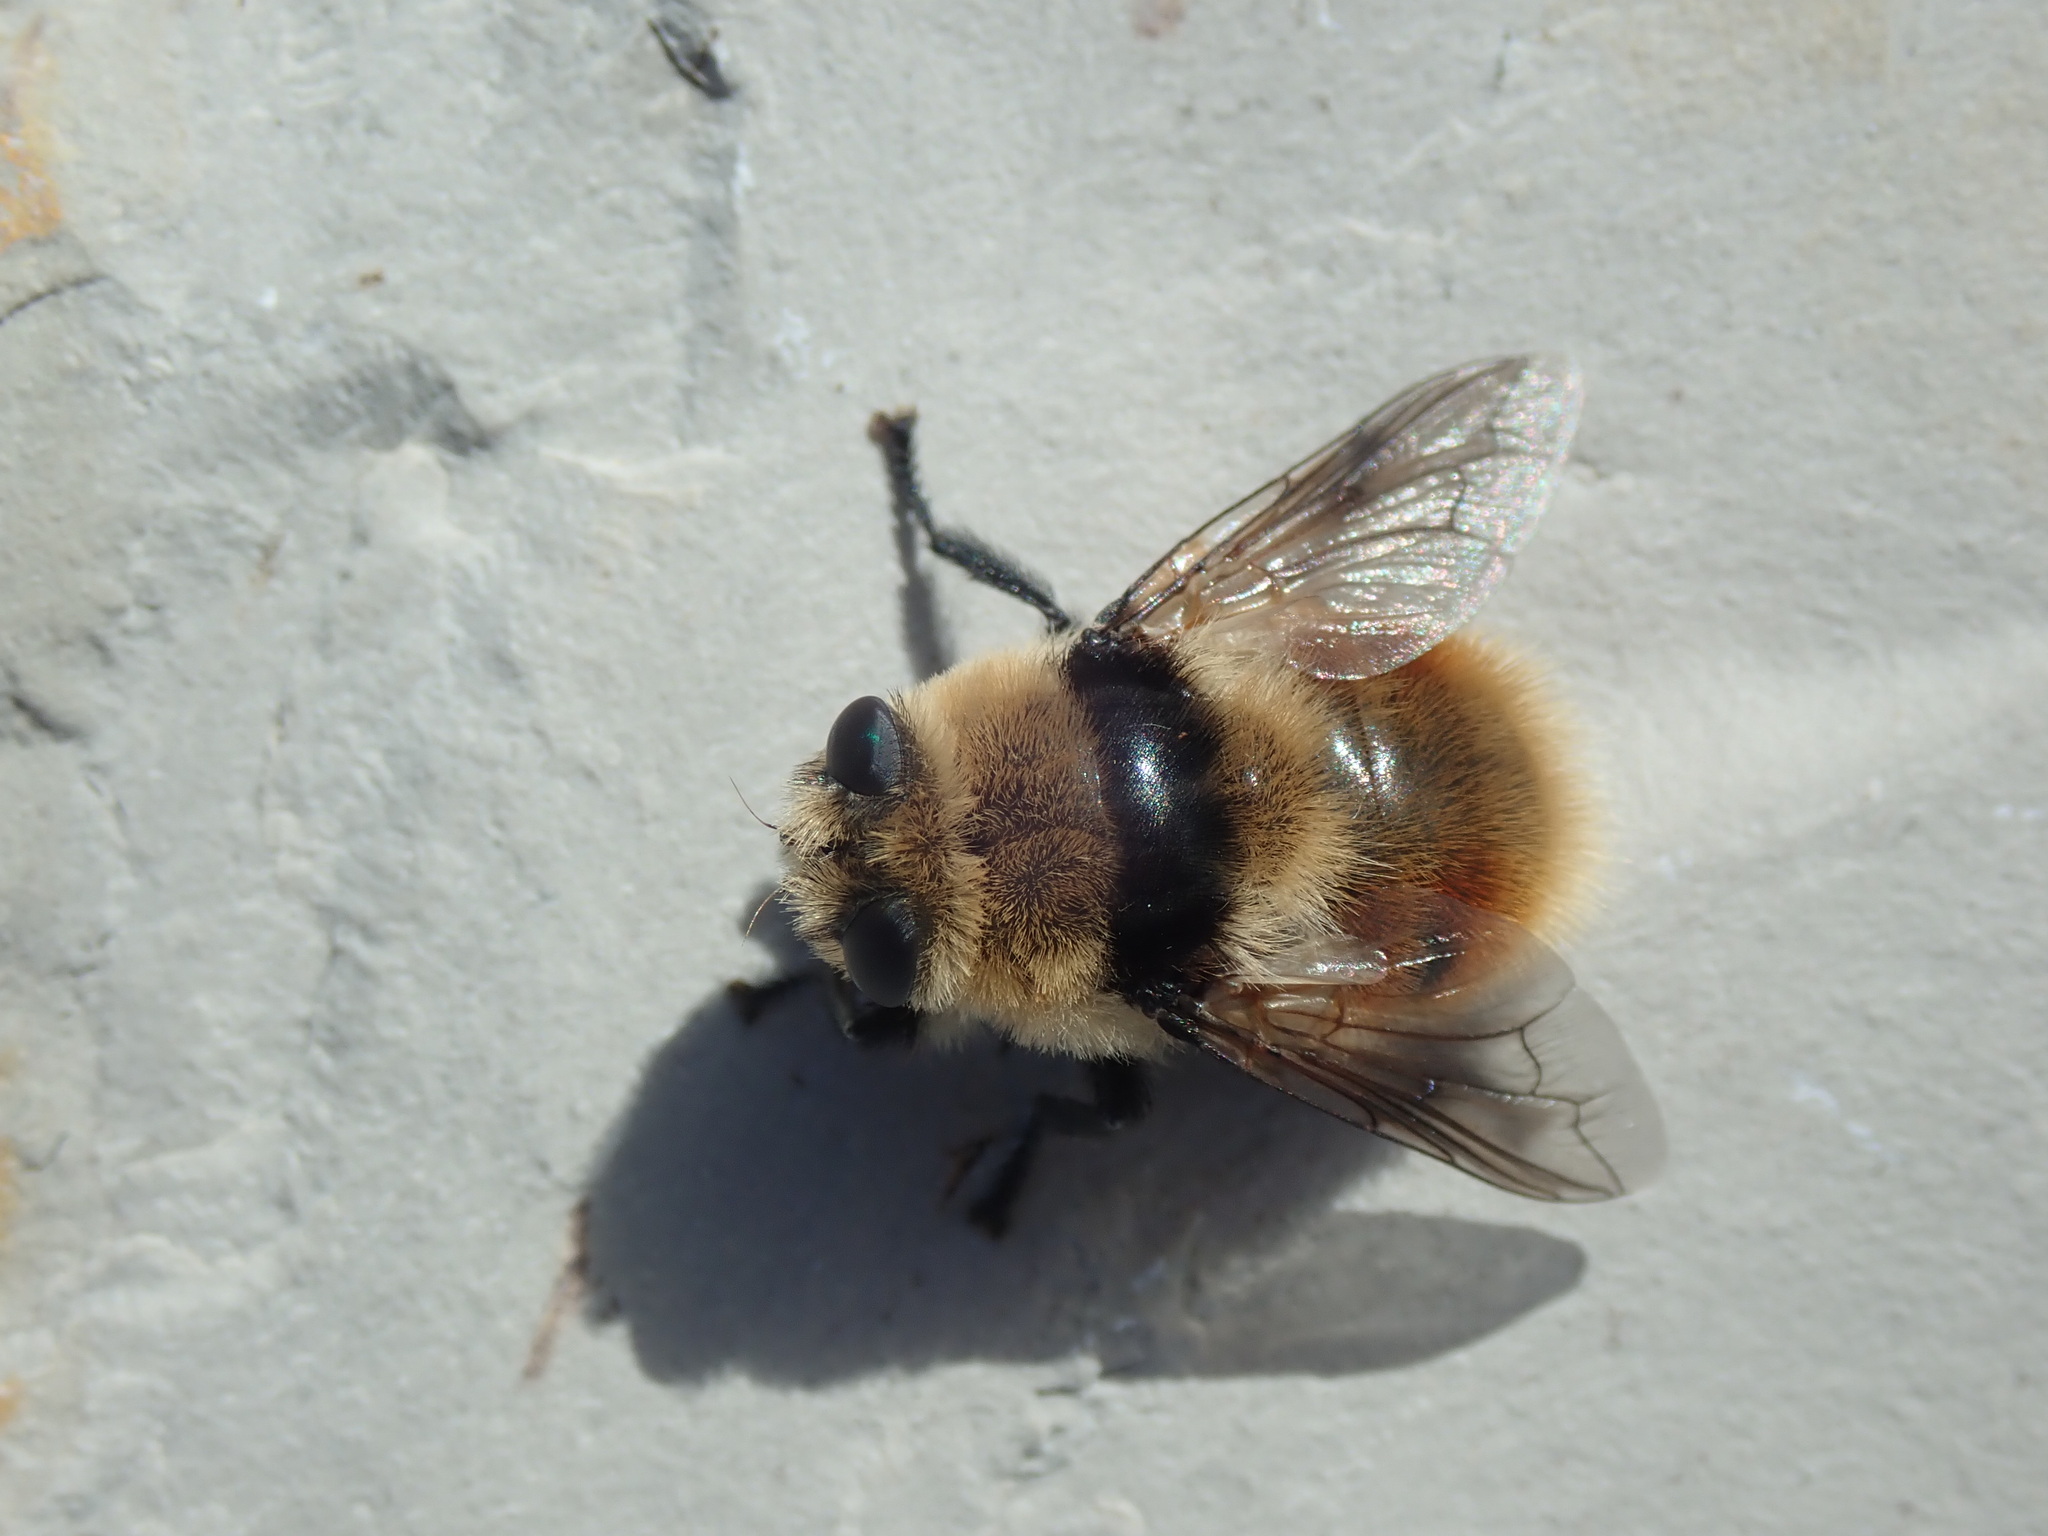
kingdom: Animalia
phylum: Arthropoda
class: Insecta
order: Diptera
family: Oestridae
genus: Cephenemyia
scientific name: Cephenemyia stimulator
